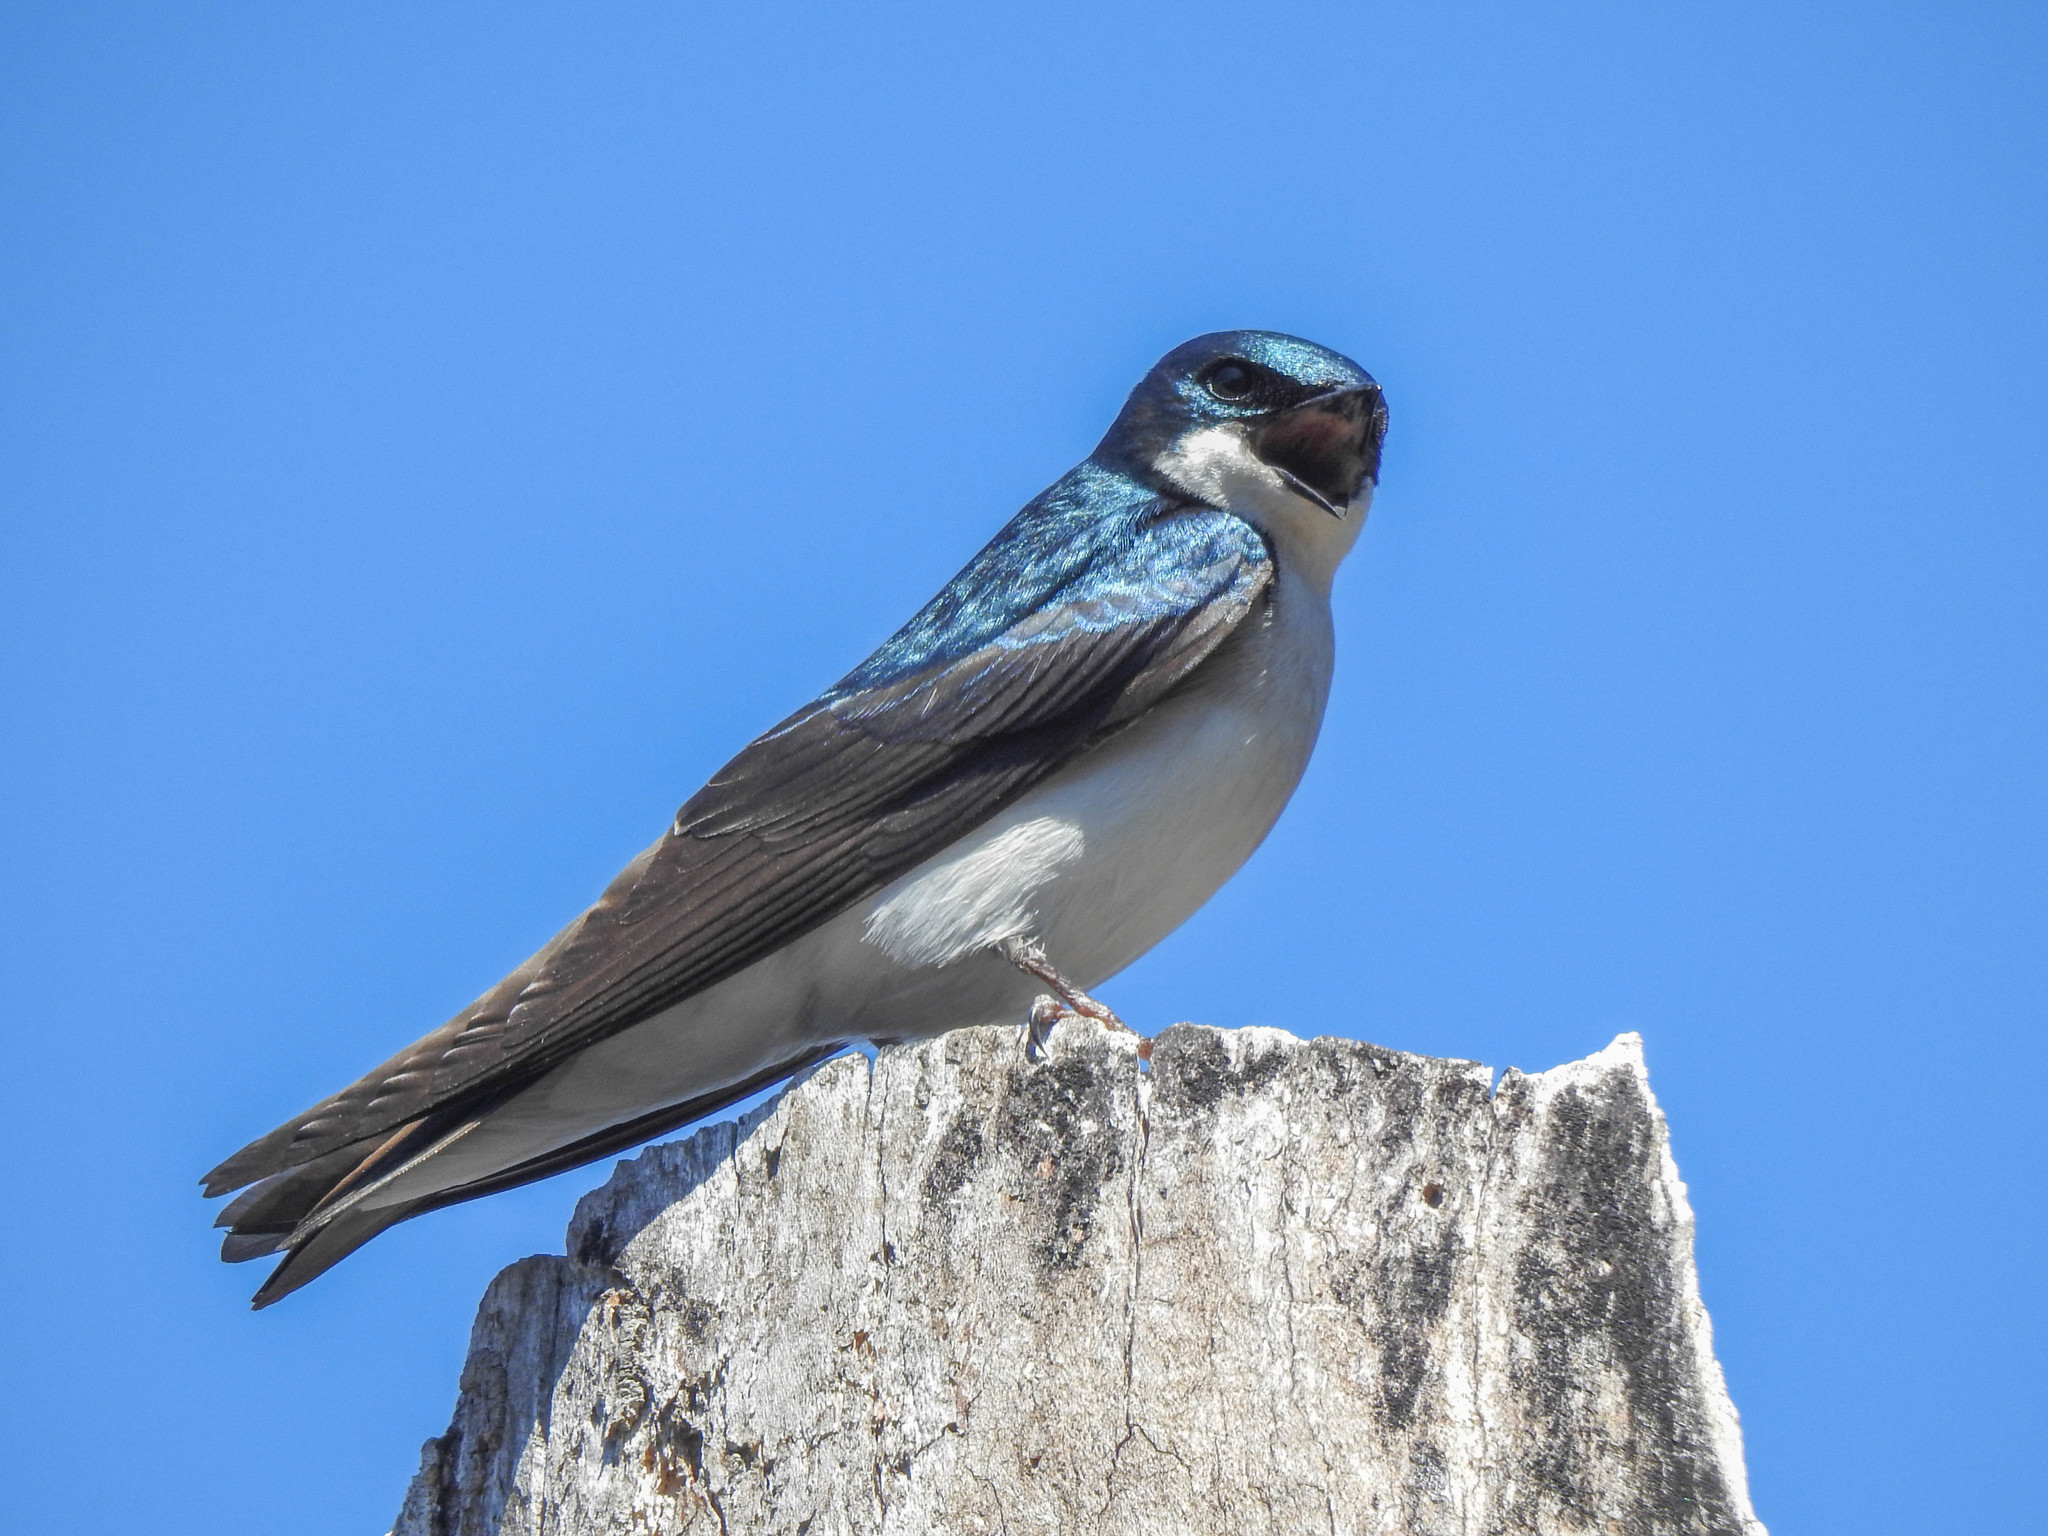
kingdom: Animalia
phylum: Chordata
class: Aves
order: Passeriformes
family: Hirundinidae
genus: Tachycineta
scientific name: Tachycineta bicolor
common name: Tree swallow
